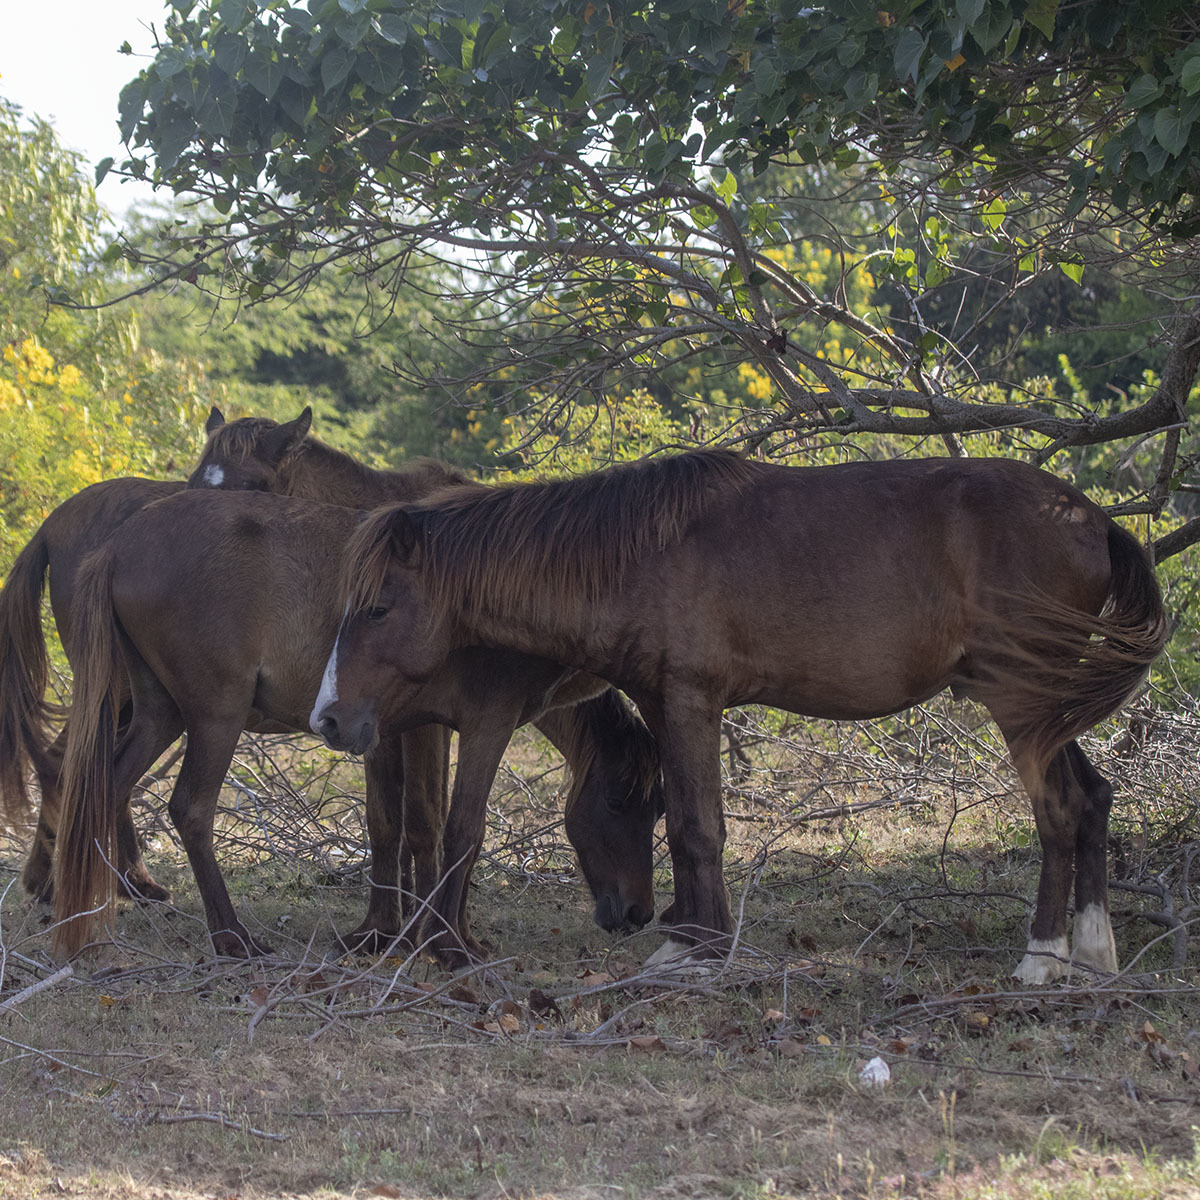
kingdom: Animalia
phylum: Chordata
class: Mammalia
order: Perissodactyla
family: Equidae
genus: Equus
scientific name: Equus caballus
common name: Horse
